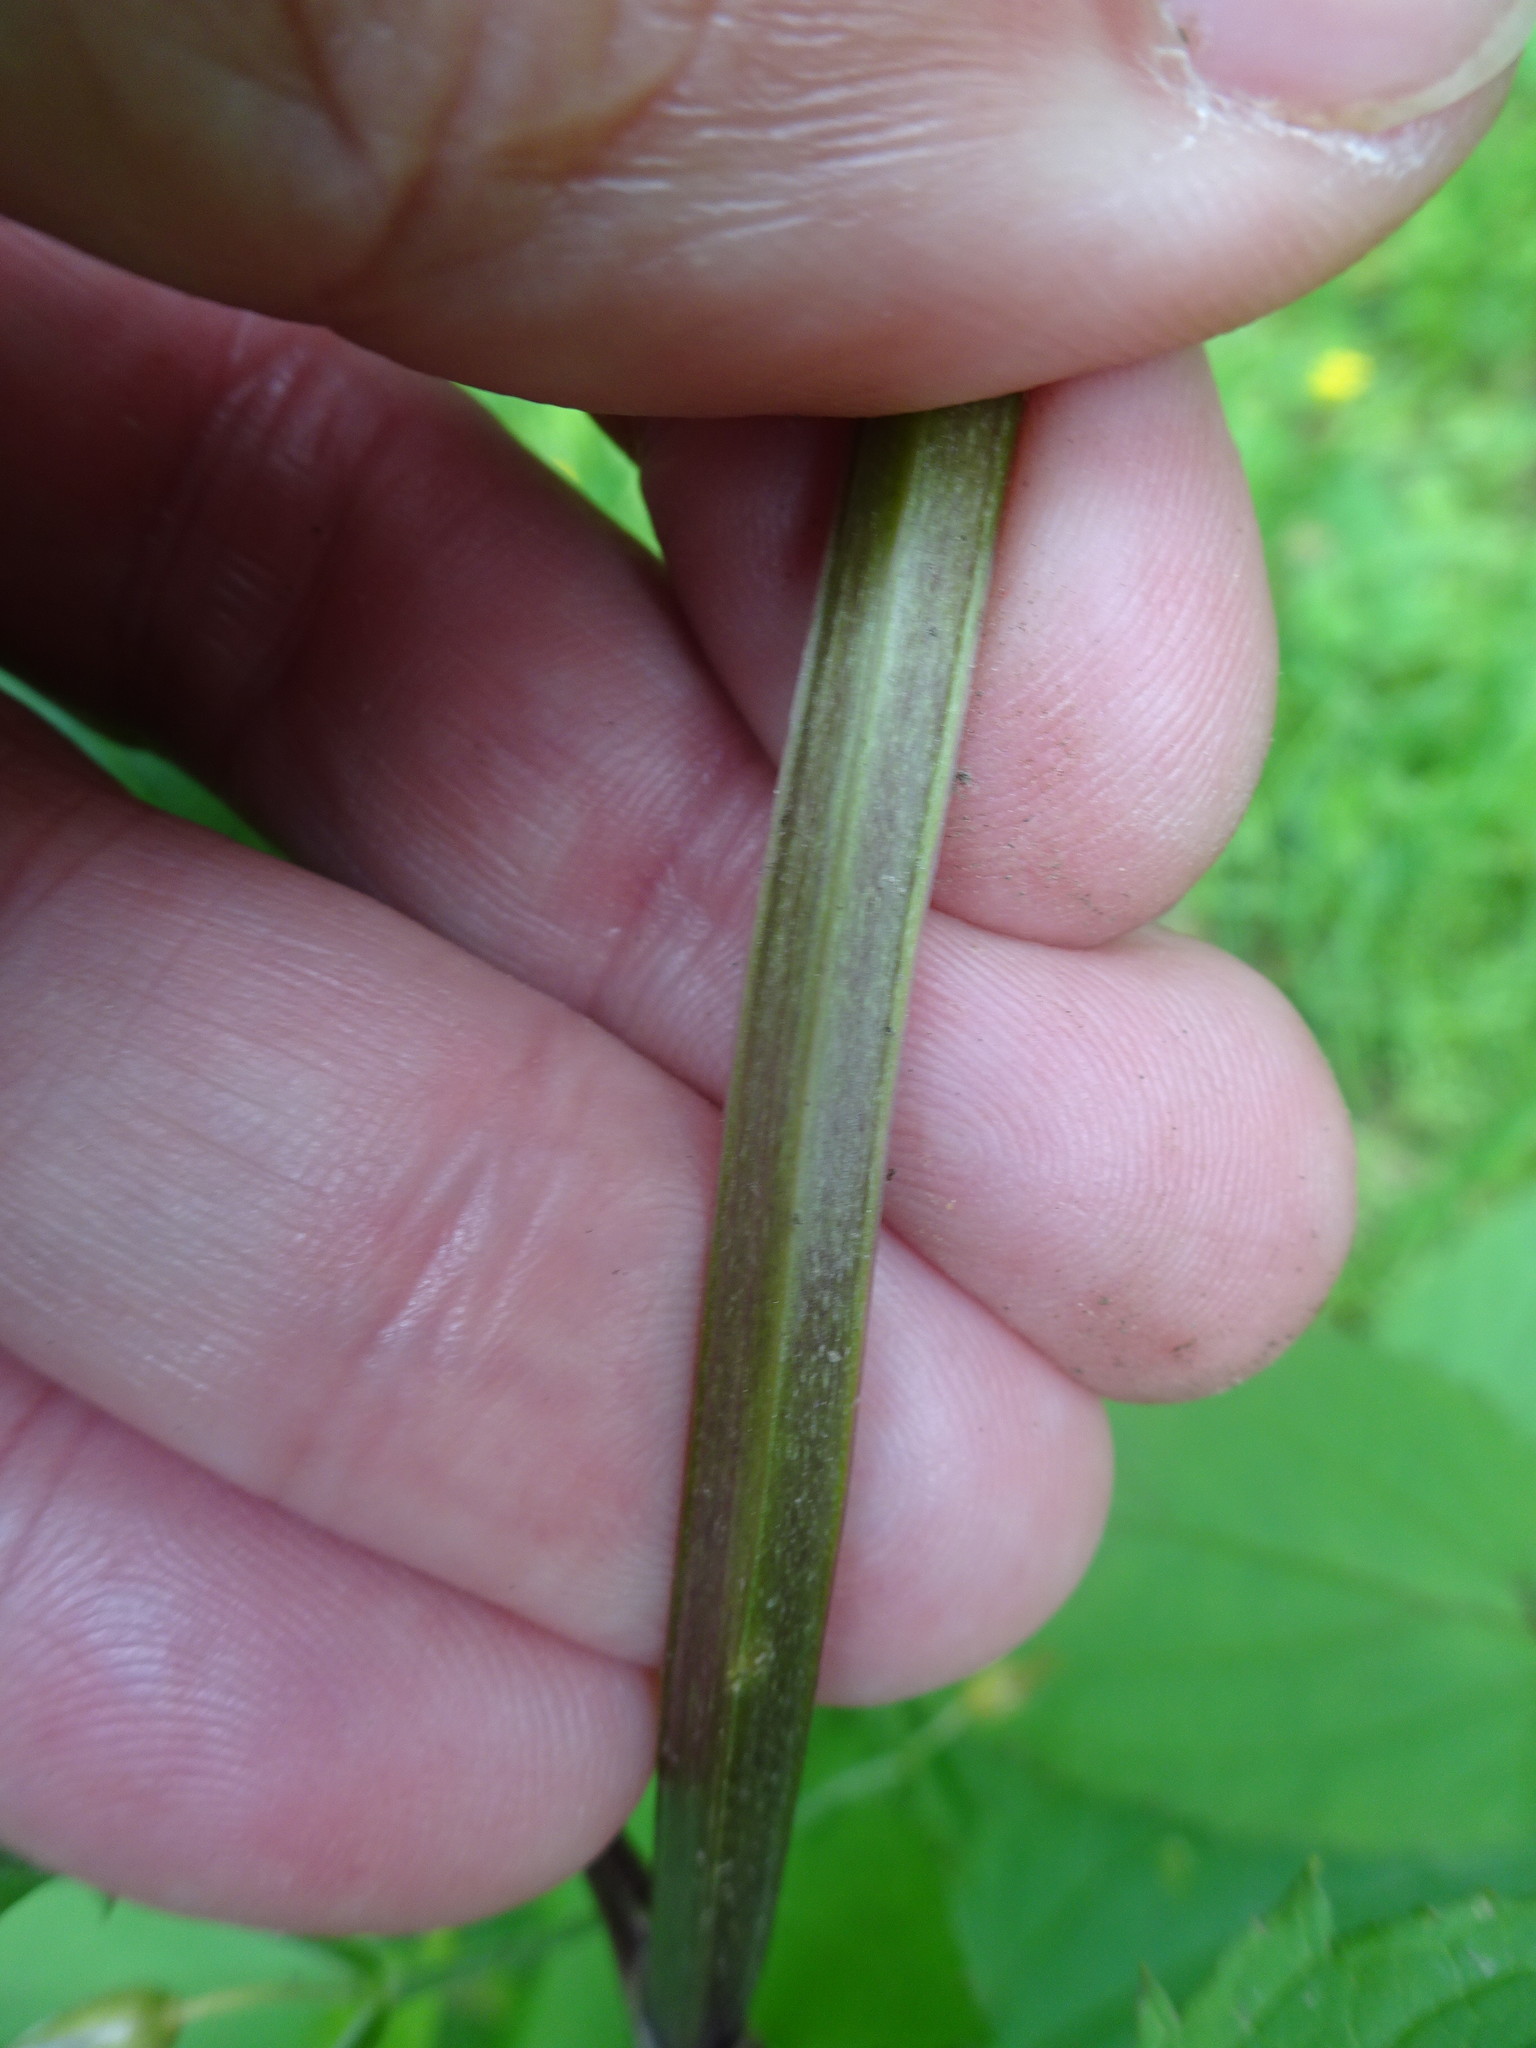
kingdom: Plantae
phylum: Tracheophyta
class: Magnoliopsida
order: Lamiales
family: Scrophulariaceae
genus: Scrophularia
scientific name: Scrophularia nodosa
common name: Common figwort
